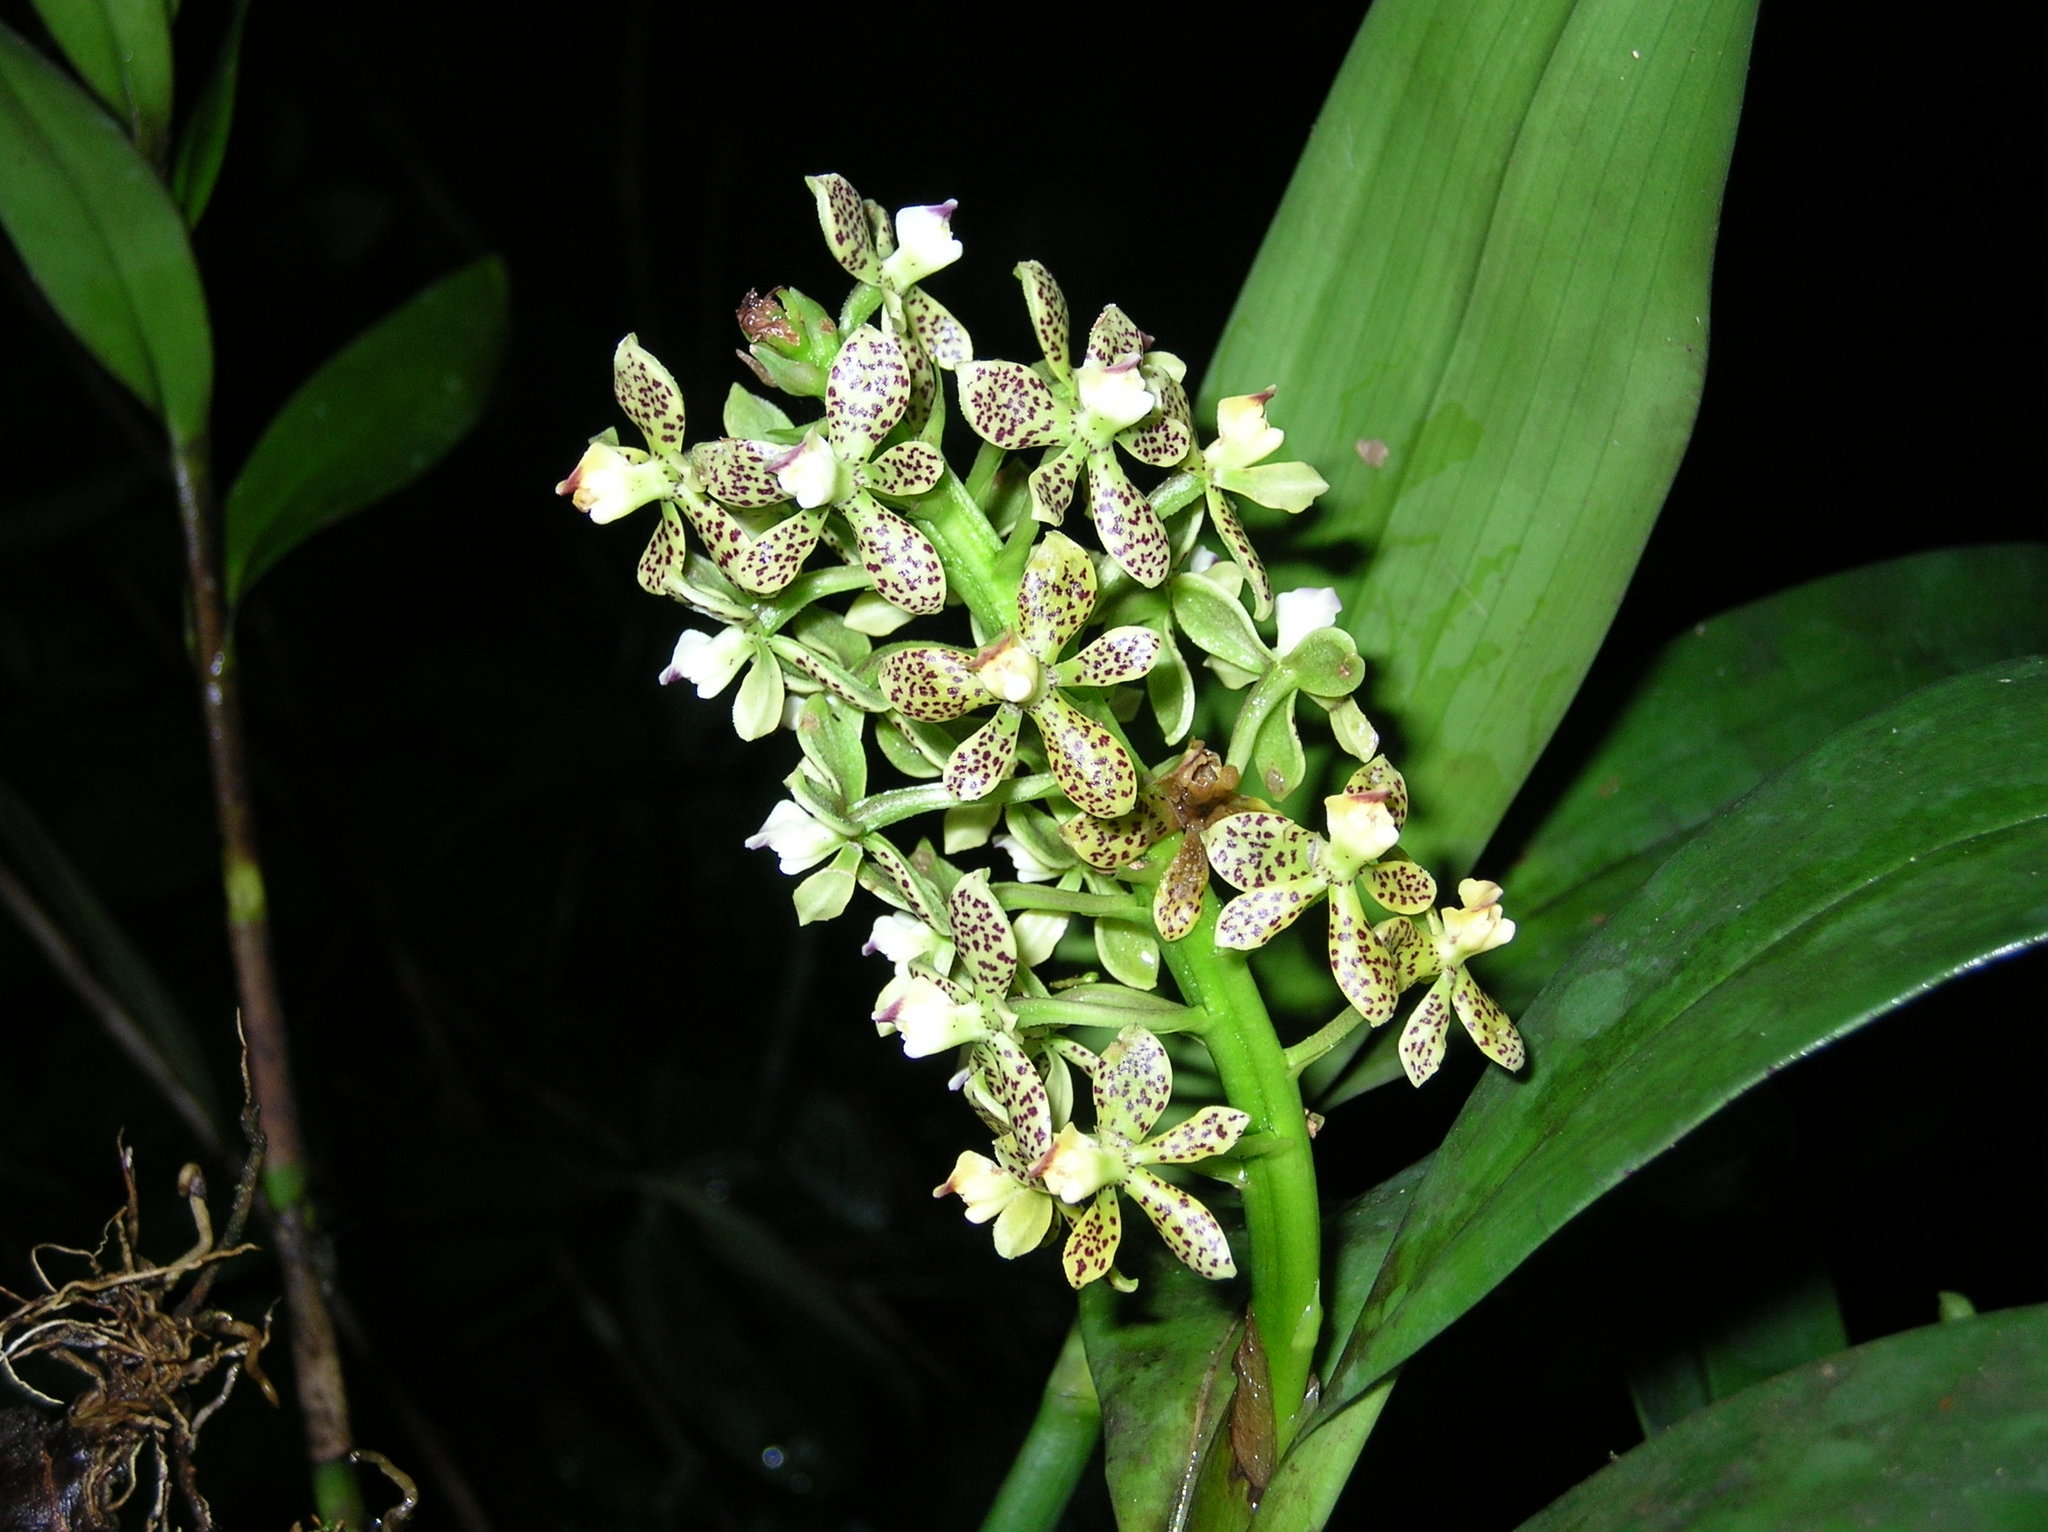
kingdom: Plantae
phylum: Tracheophyta
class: Liliopsida
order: Asparagales
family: Orchidaceae
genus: Prosthechea
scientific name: Prosthechea crassilabia
